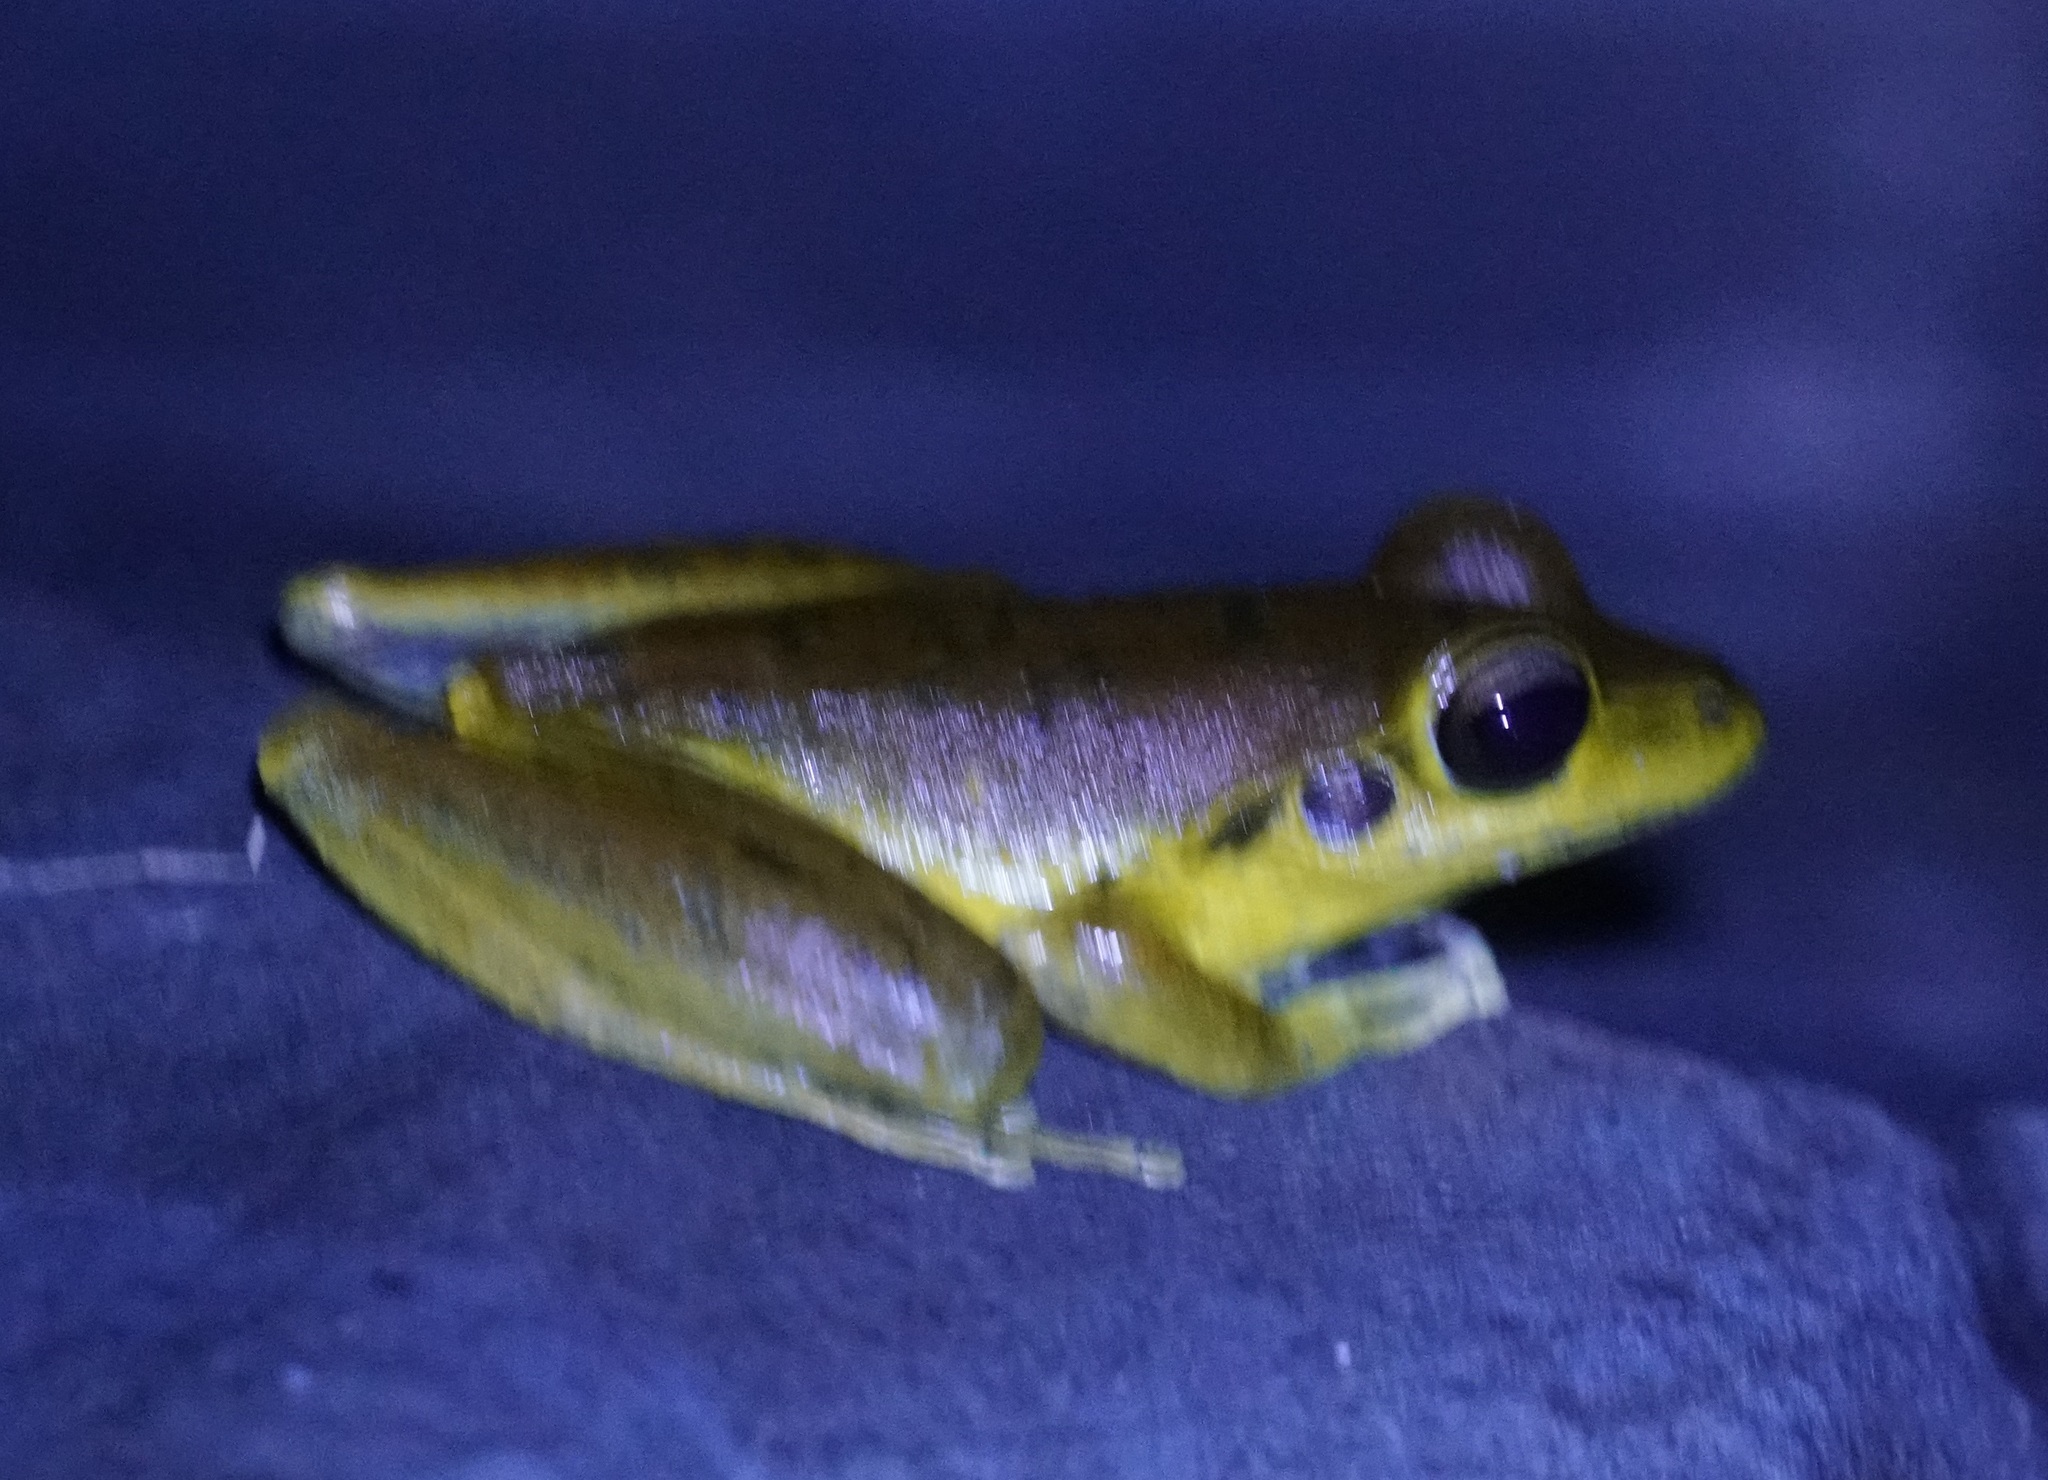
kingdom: Animalia
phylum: Chordata
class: Amphibia
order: Anura
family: Hylidae
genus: Ranoidea
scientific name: Ranoidea
